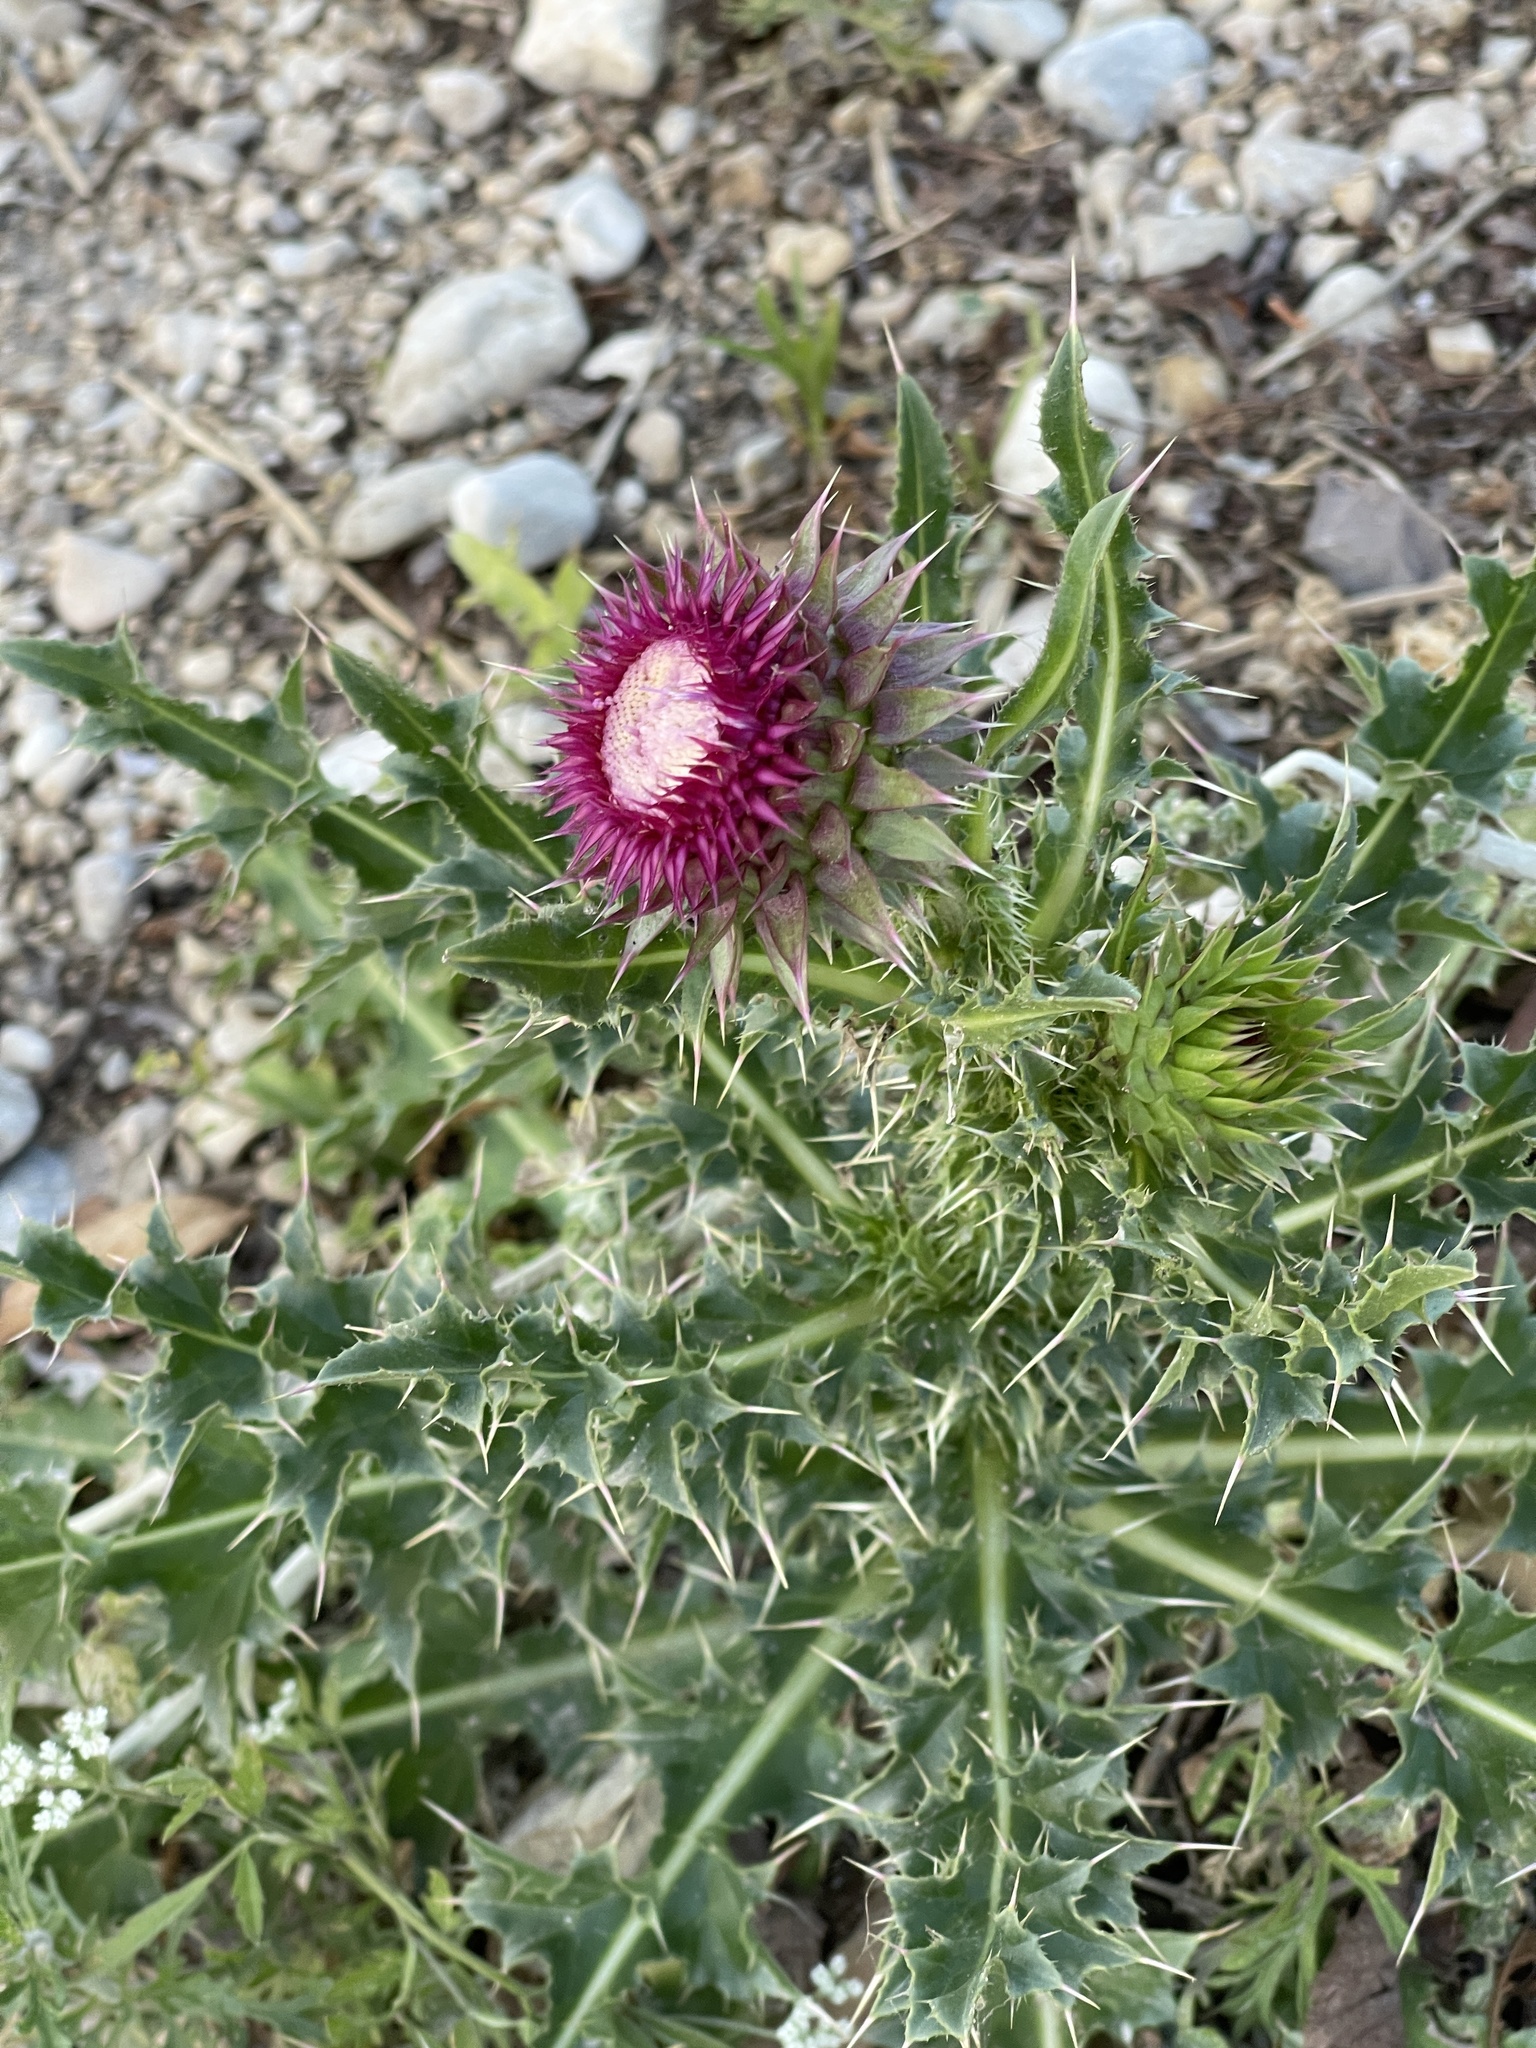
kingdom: Plantae
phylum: Tracheophyta
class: Magnoliopsida
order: Asterales
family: Asteraceae
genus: Carduus
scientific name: Carduus nutans
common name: Musk thistle
